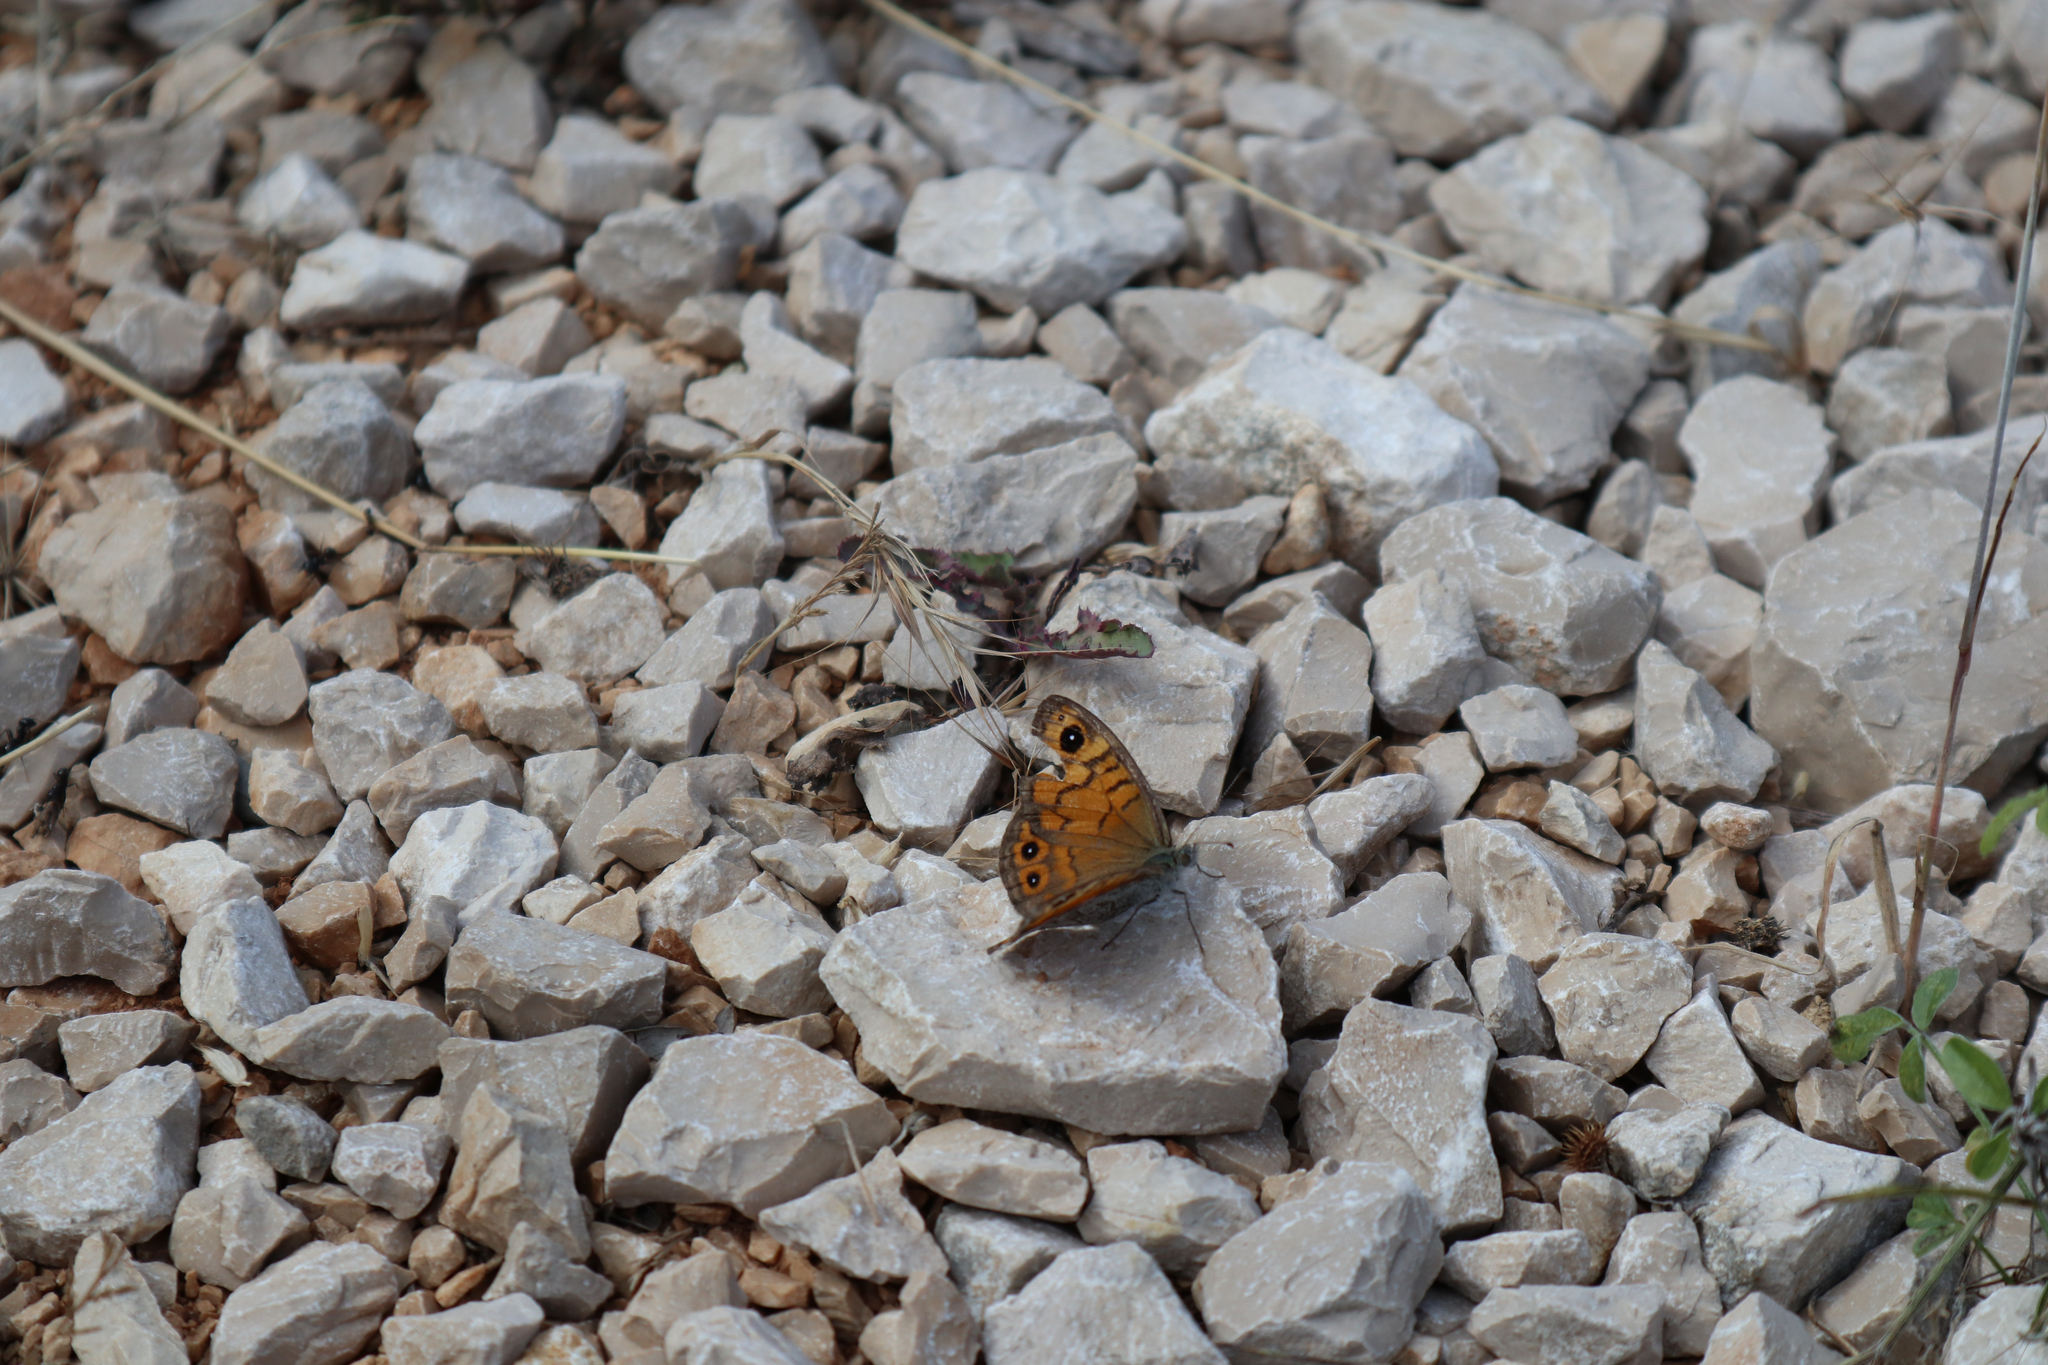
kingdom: Animalia
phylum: Arthropoda
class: Insecta
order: Lepidoptera
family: Nymphalidae
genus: Pararge
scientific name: Pararge Lasiommata megera
